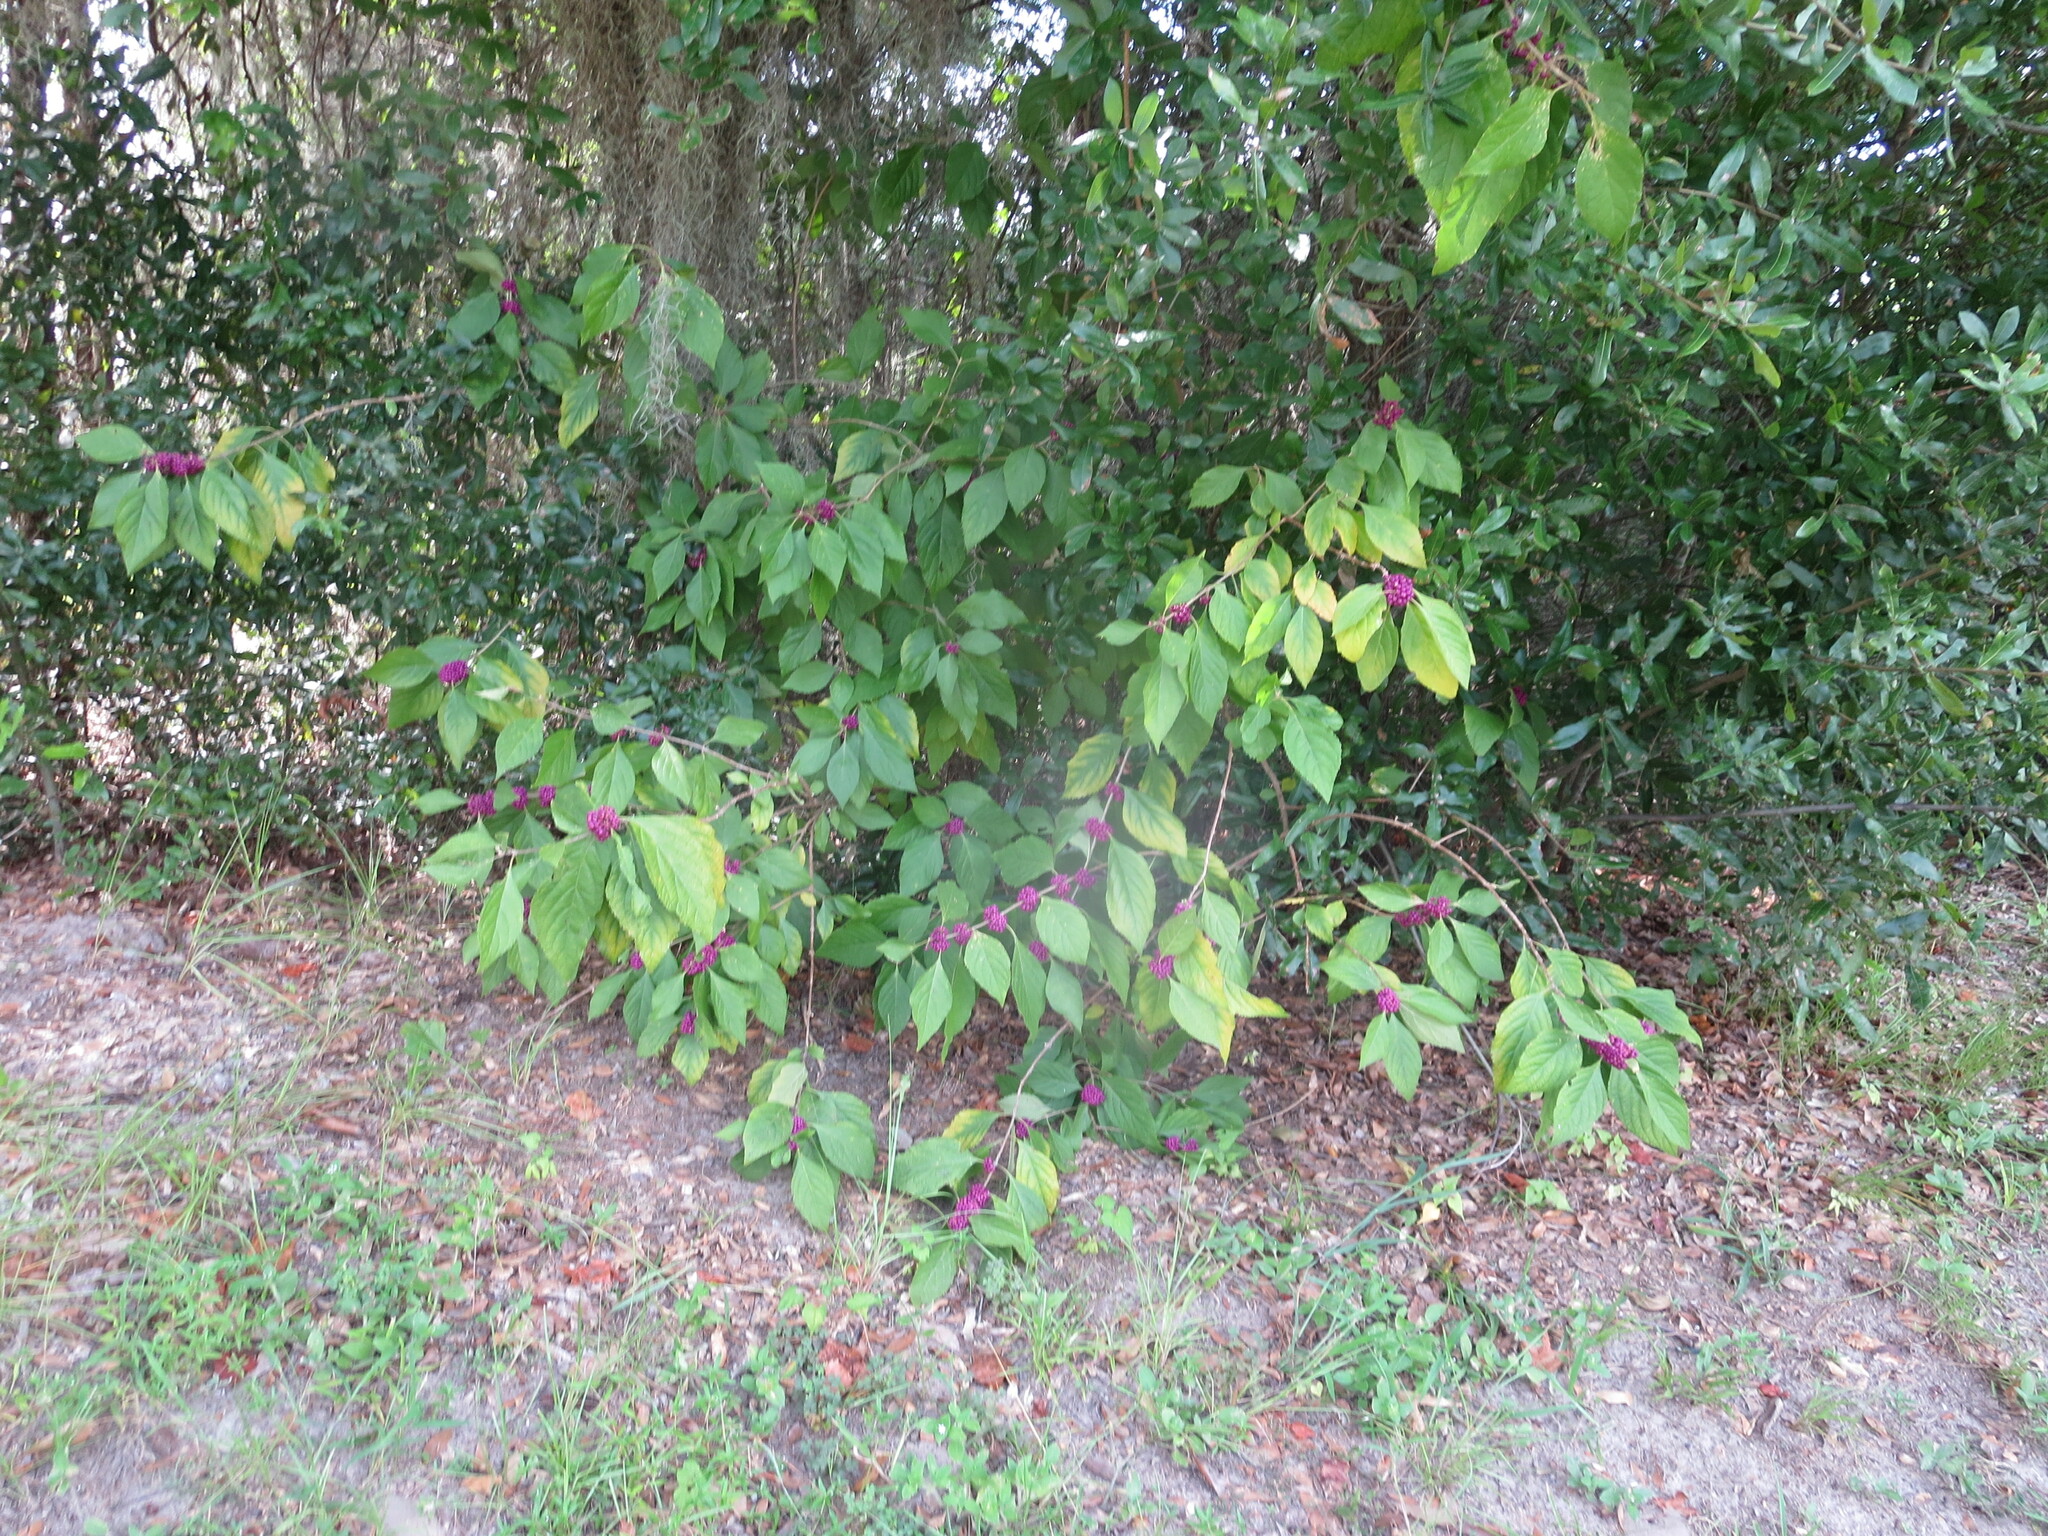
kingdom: Plantae
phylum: Tracheophyta
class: Magnoliopsida
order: Lamiales
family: Lamiaceae
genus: Callicarpa
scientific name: Callicarpa americana
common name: American beautyberry
